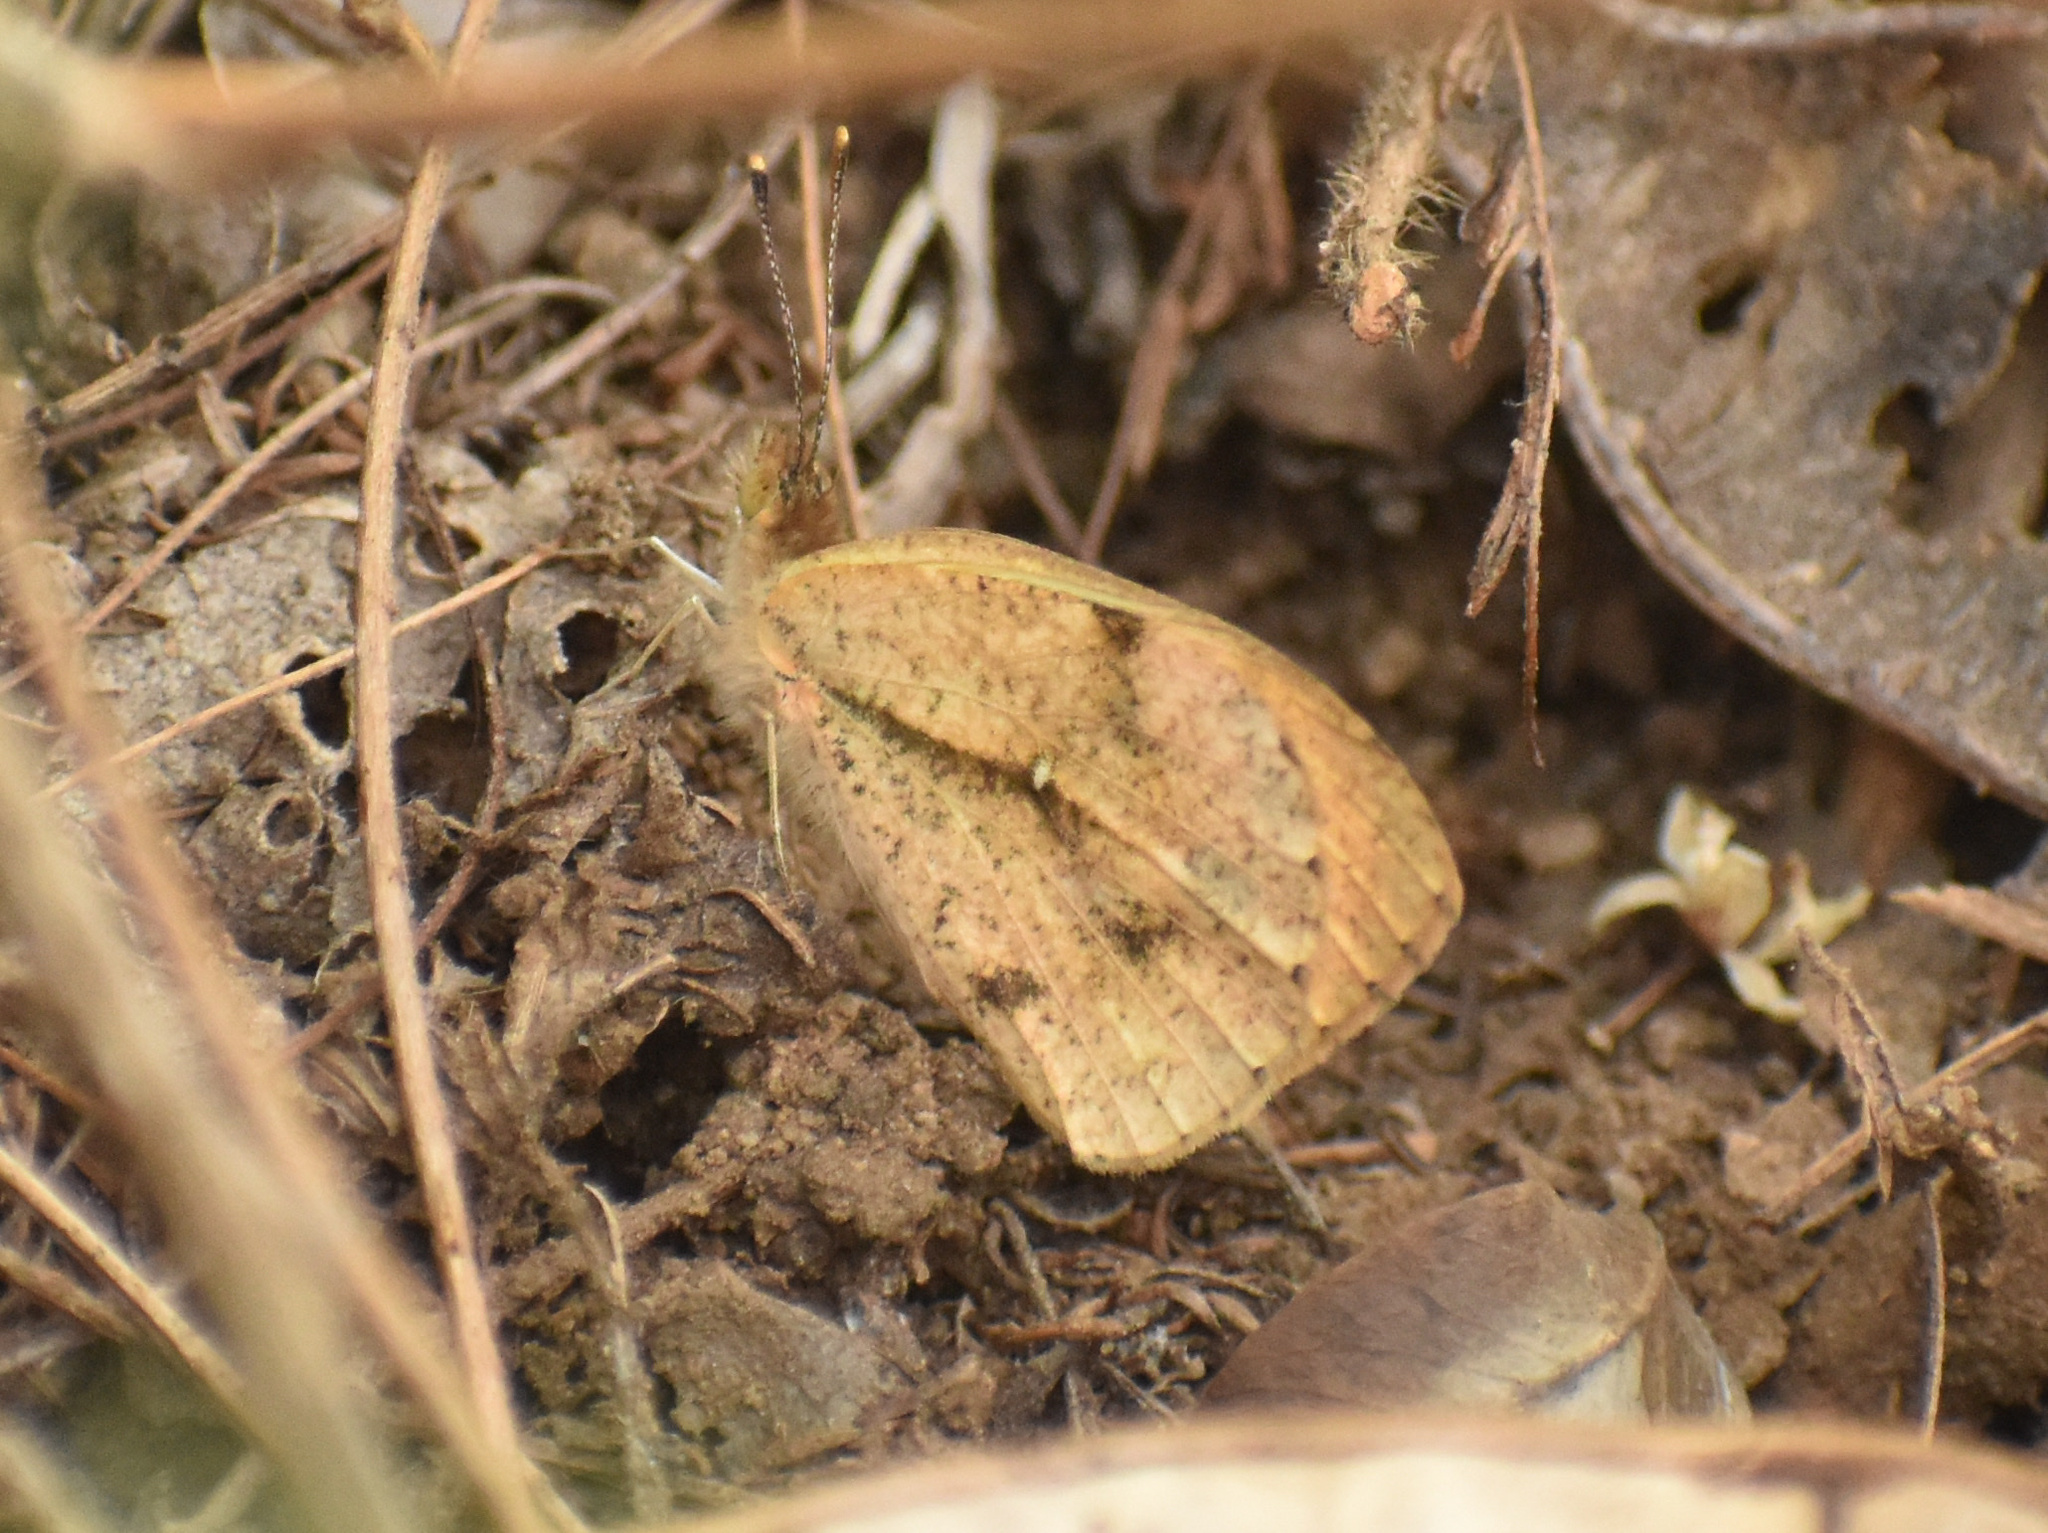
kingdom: Animalia
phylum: Arthropoda
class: Insecta
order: Lepidoptera
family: Pieridae
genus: Colotis
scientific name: Colotis auxo
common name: Sulphur orange tip
